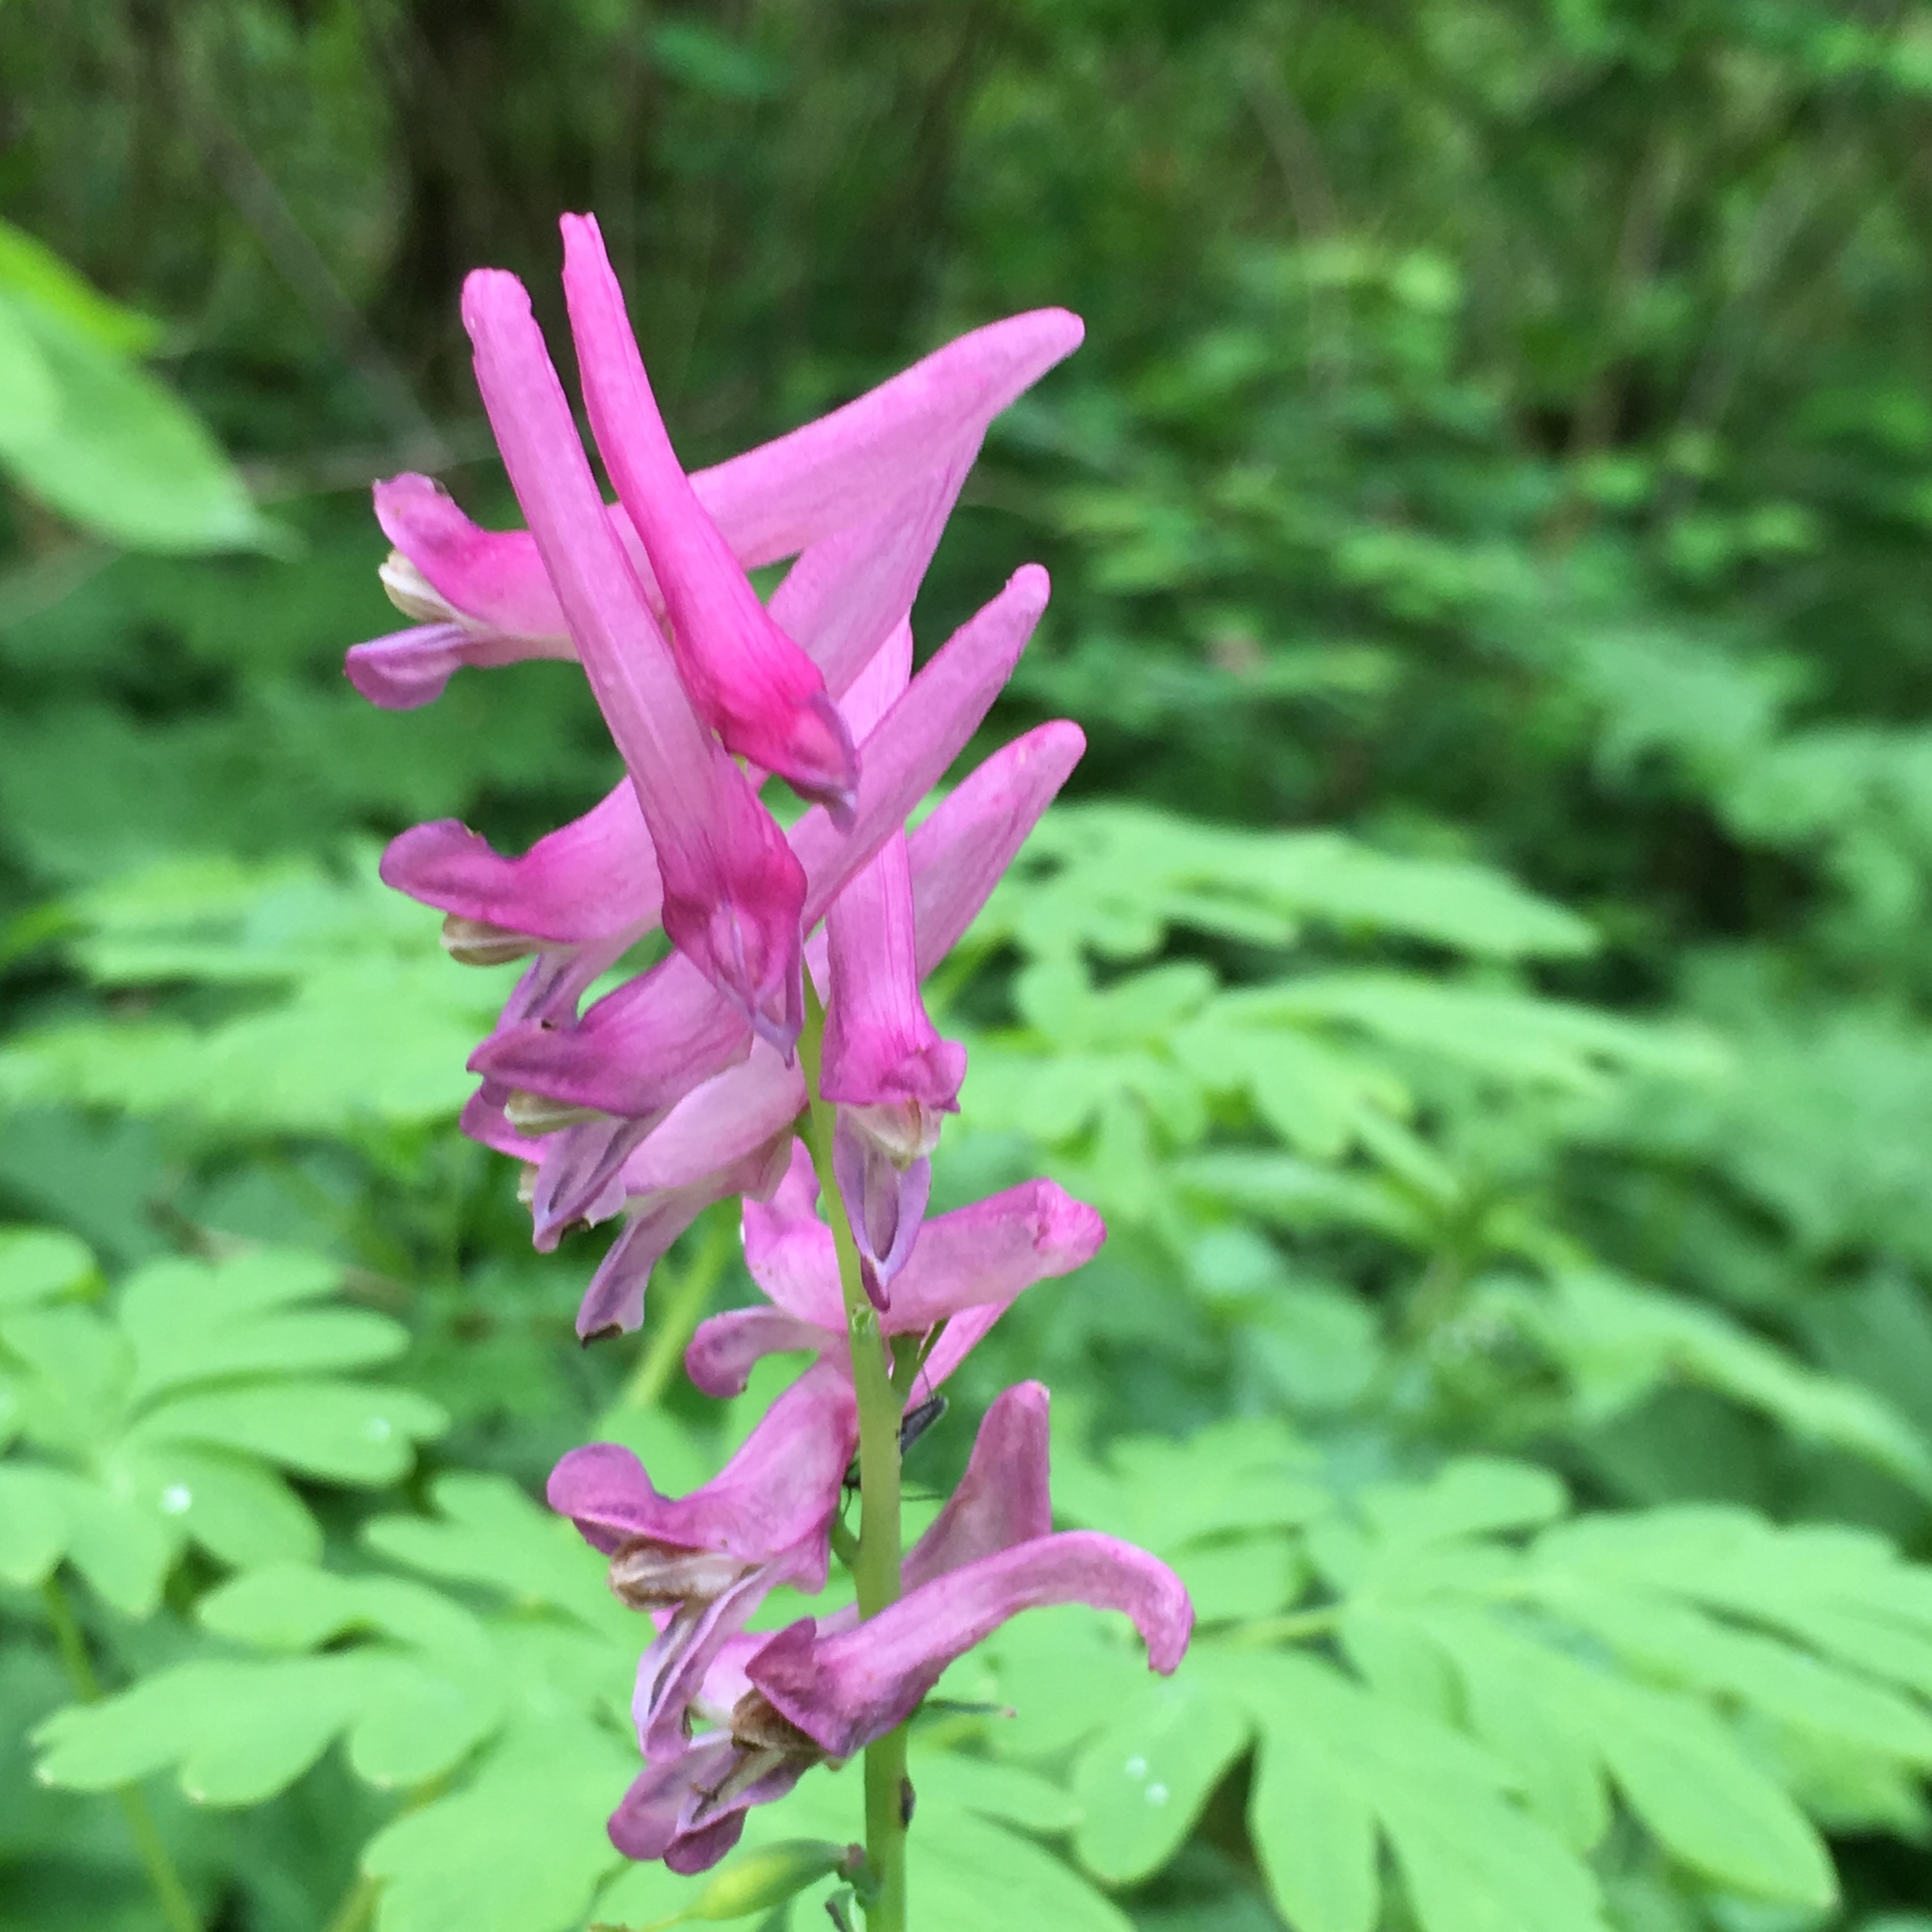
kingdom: Plantae
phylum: Tracheophyta
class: Magnoliopsida
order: Ranunculales
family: Papaveraceae
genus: Corydalis
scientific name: Corydalis scouleri
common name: Scouler's corydalis
